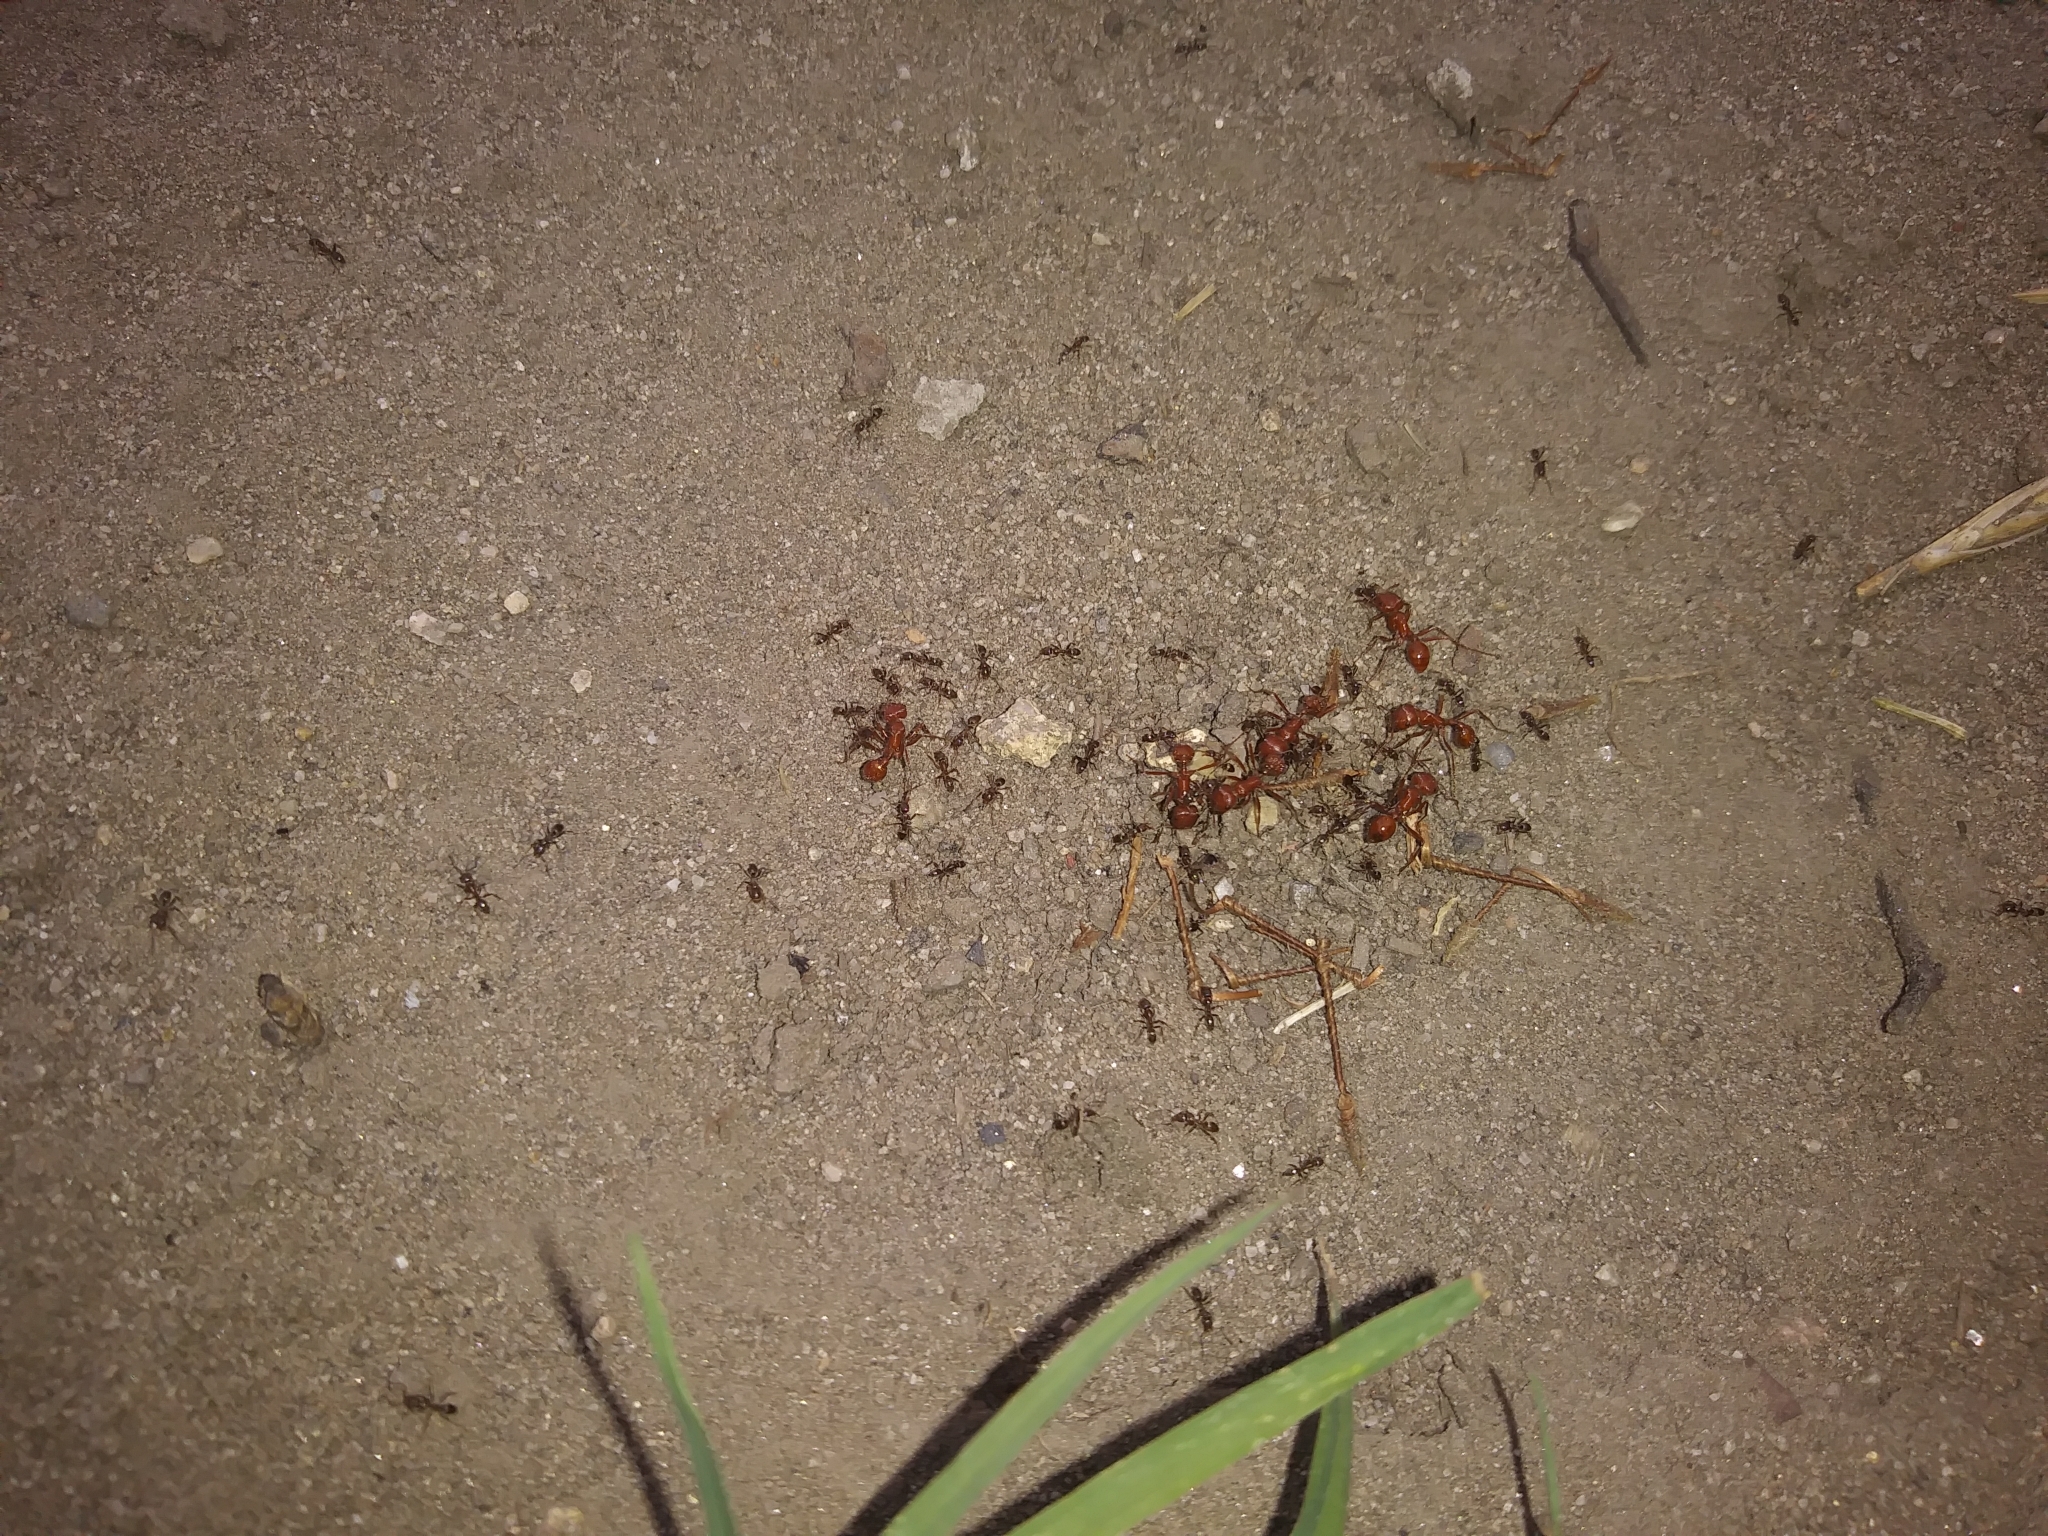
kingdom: Animalia
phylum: Arthropoda
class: Insecta
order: Hymenoptera
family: Formicidae
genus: Linepithema
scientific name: Linepithema humile
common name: Argentine ant
